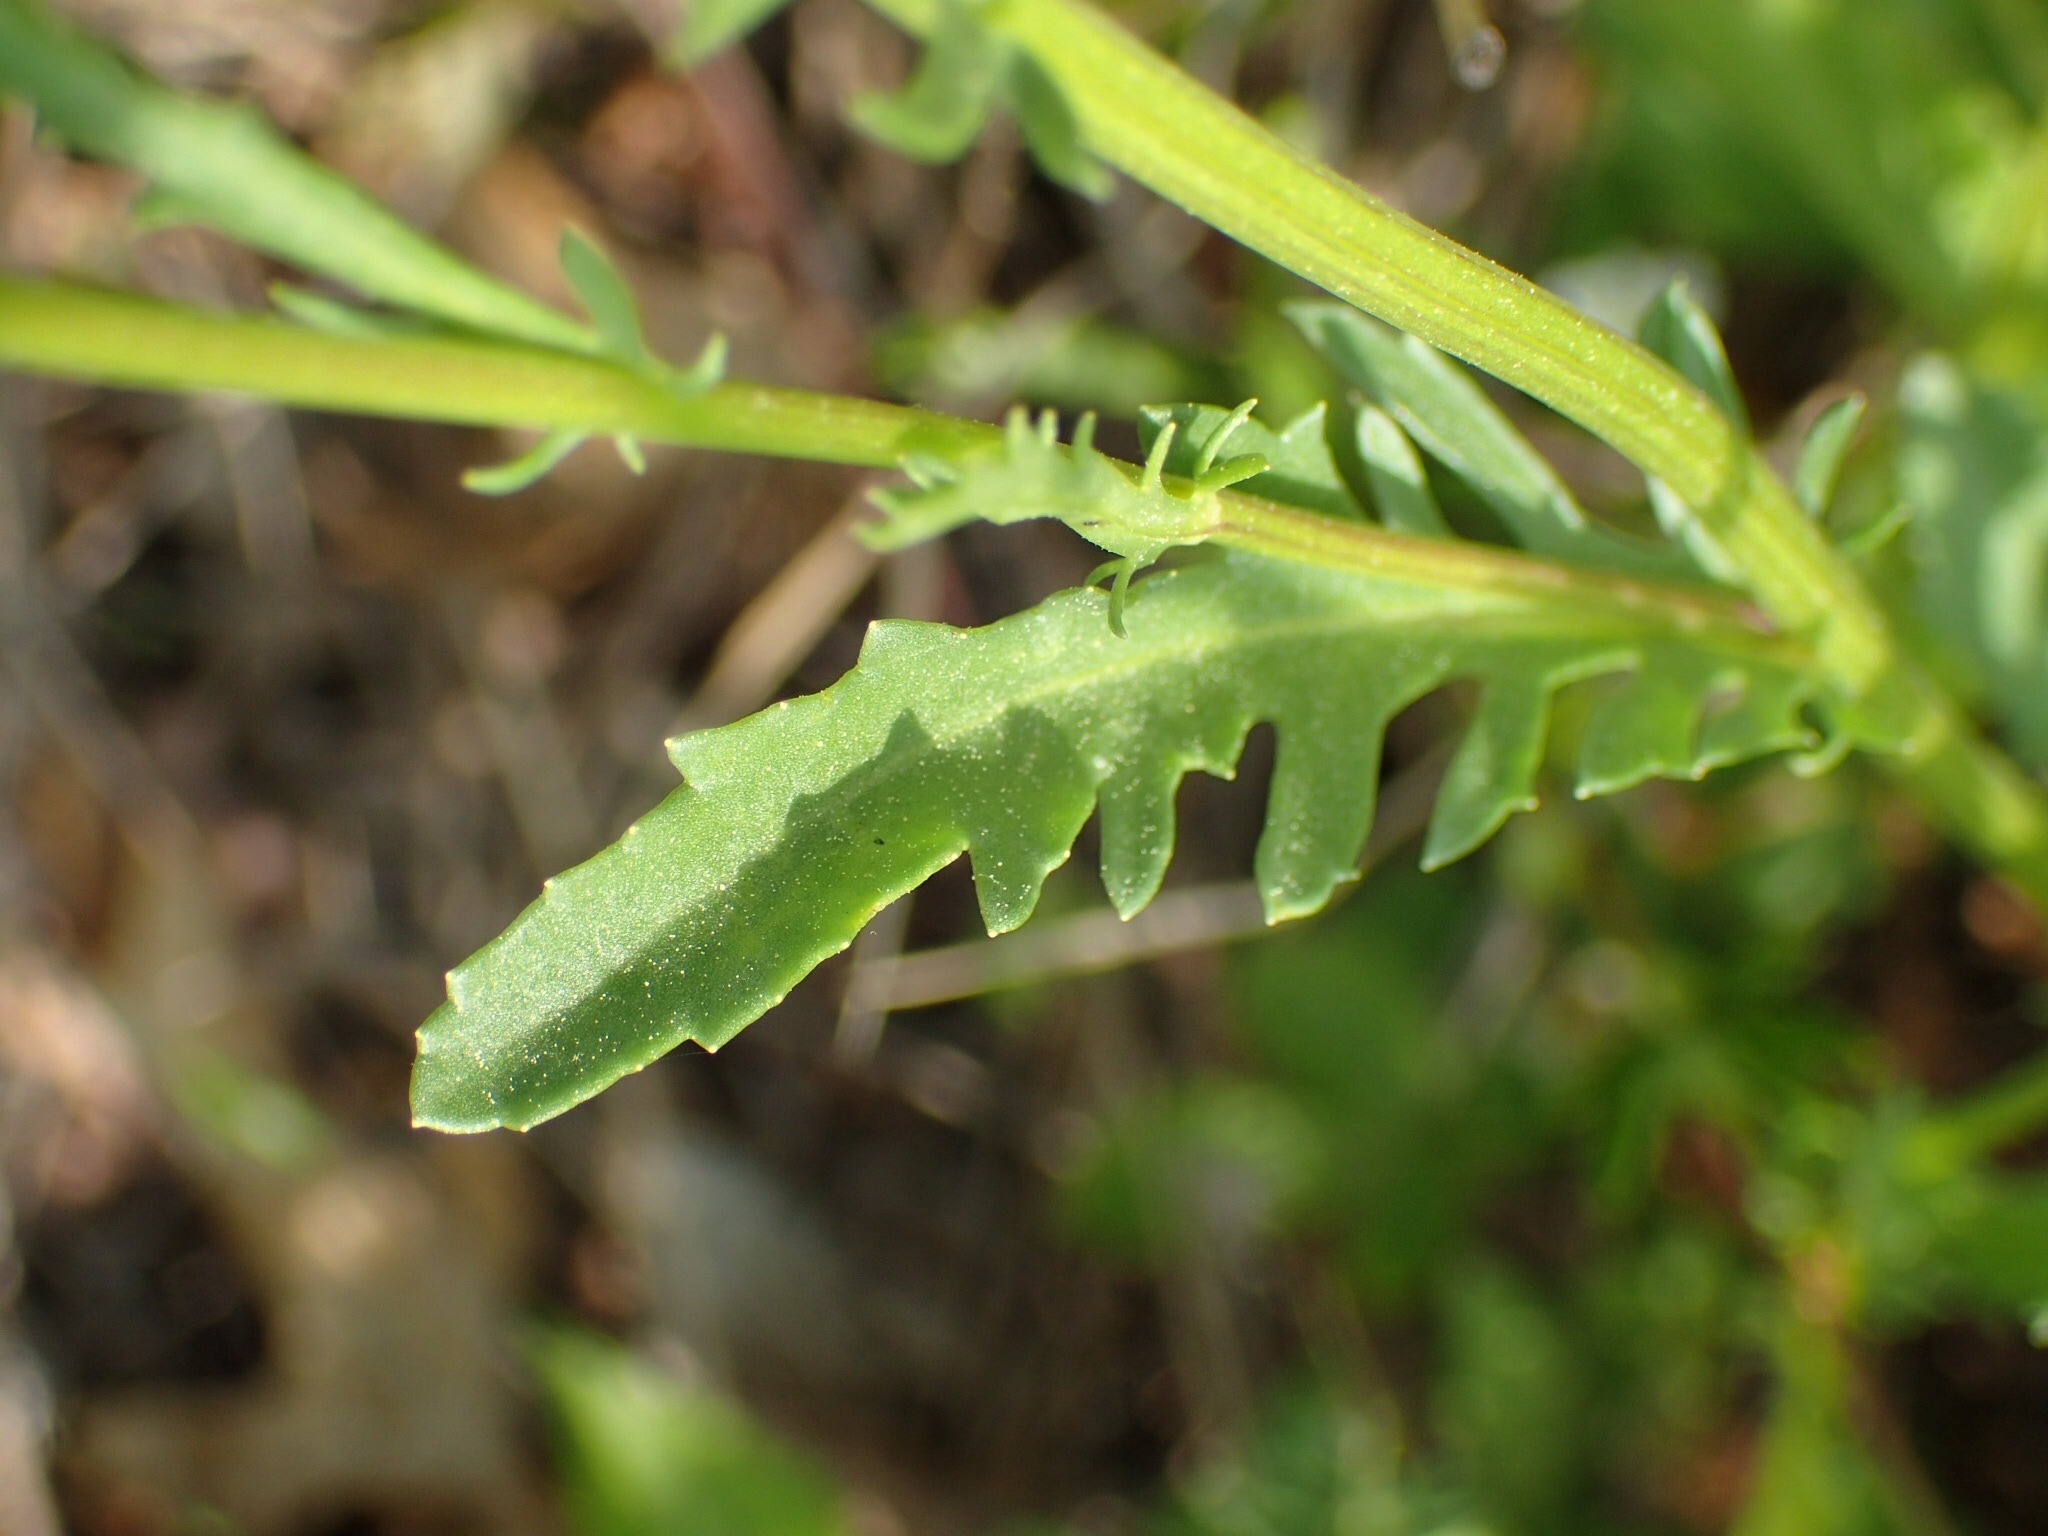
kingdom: Plantae
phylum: Tracheophyta
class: Magnoliopsida
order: Asterales
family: Asteraceae
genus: Leucanthemum
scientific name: Leucanthemum vulgare
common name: Oxeye daisy
